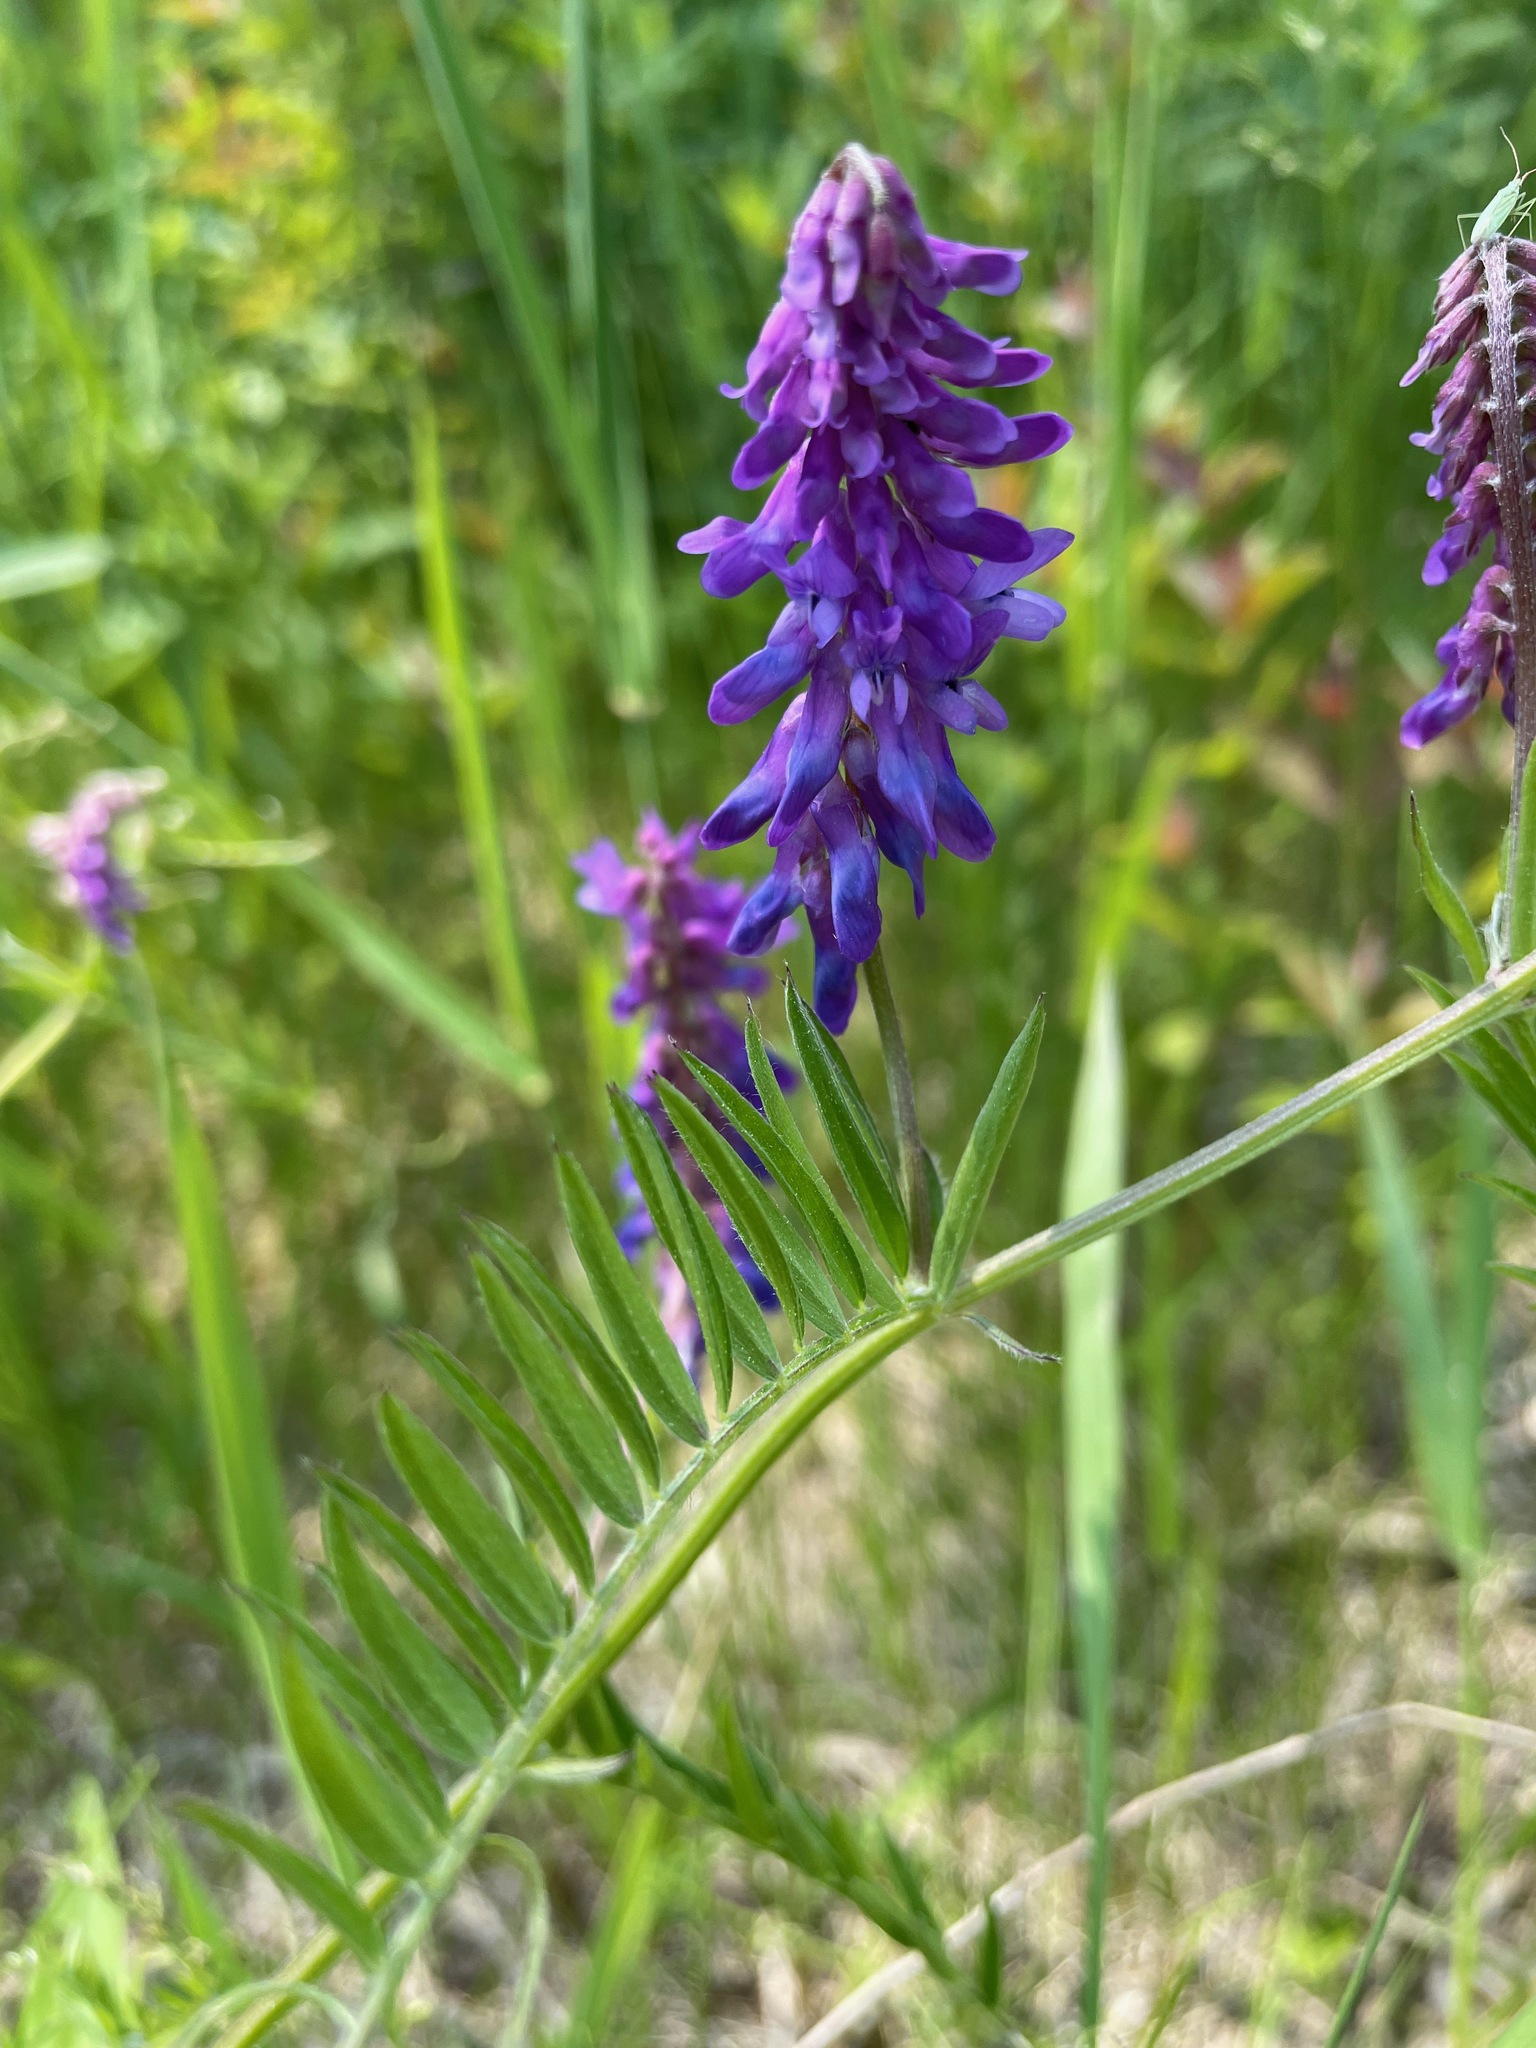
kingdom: Plantae
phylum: Tracheophyta
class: Magnoliopsida
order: Fabales
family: Fabaceae
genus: Vicia
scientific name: Vicia cracca
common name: Bird vetch
